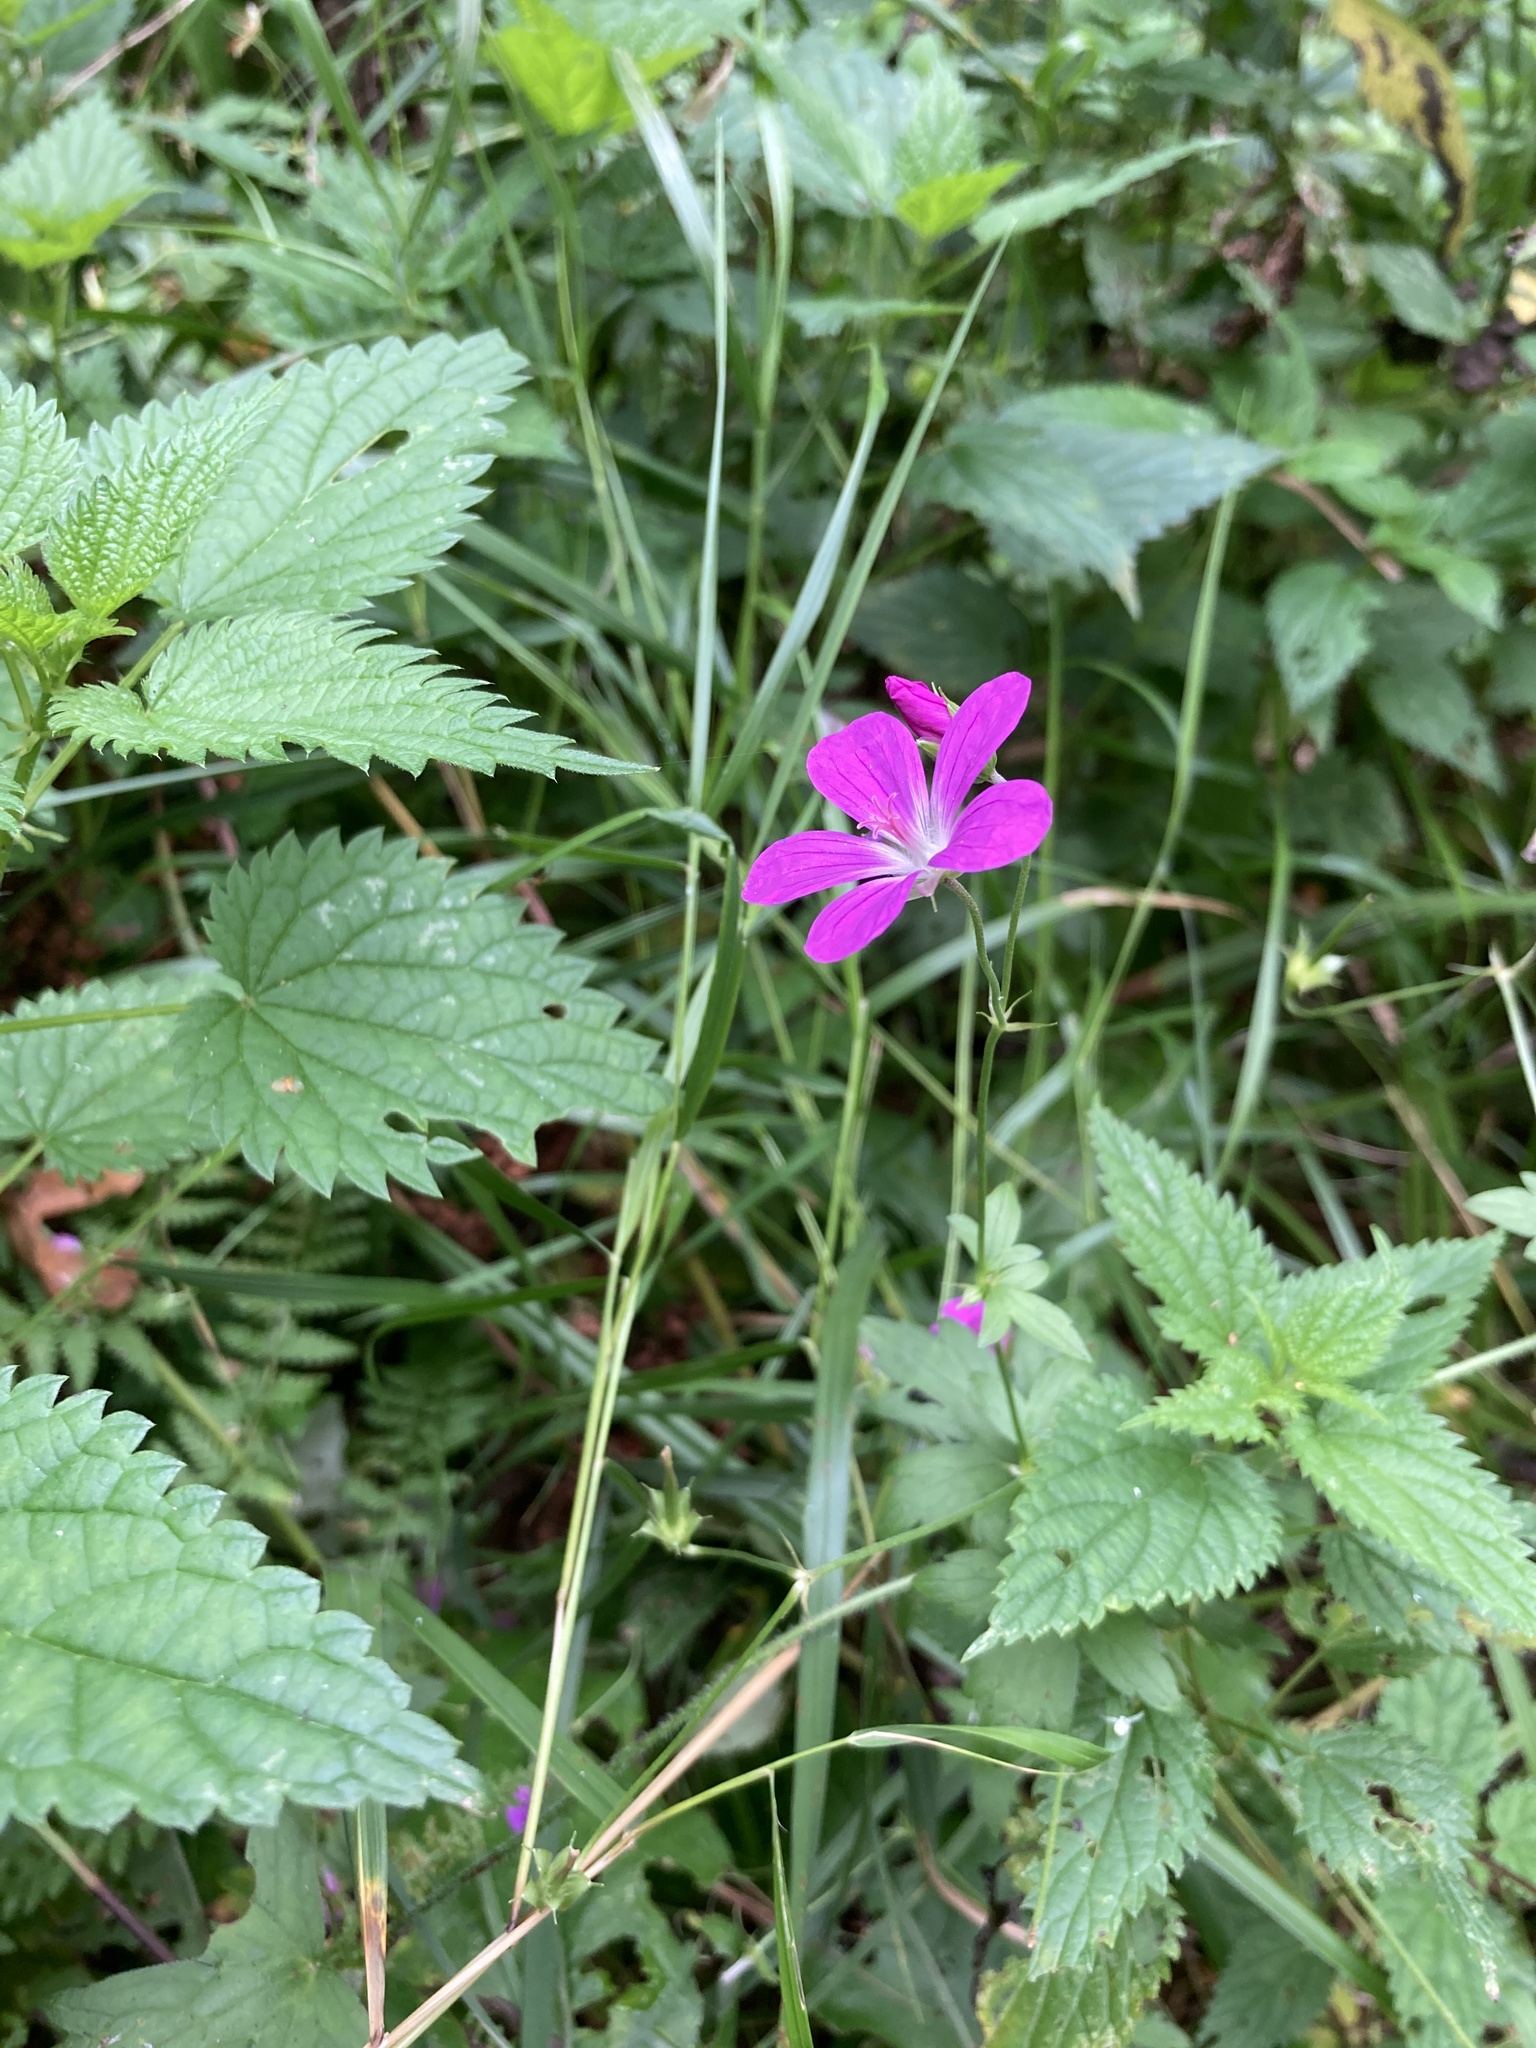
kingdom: Plantae
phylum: Tracheophyta
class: Magnoliopsida
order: Geraniales
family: Geraniaceae
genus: Geranium
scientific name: Geranium palustre
